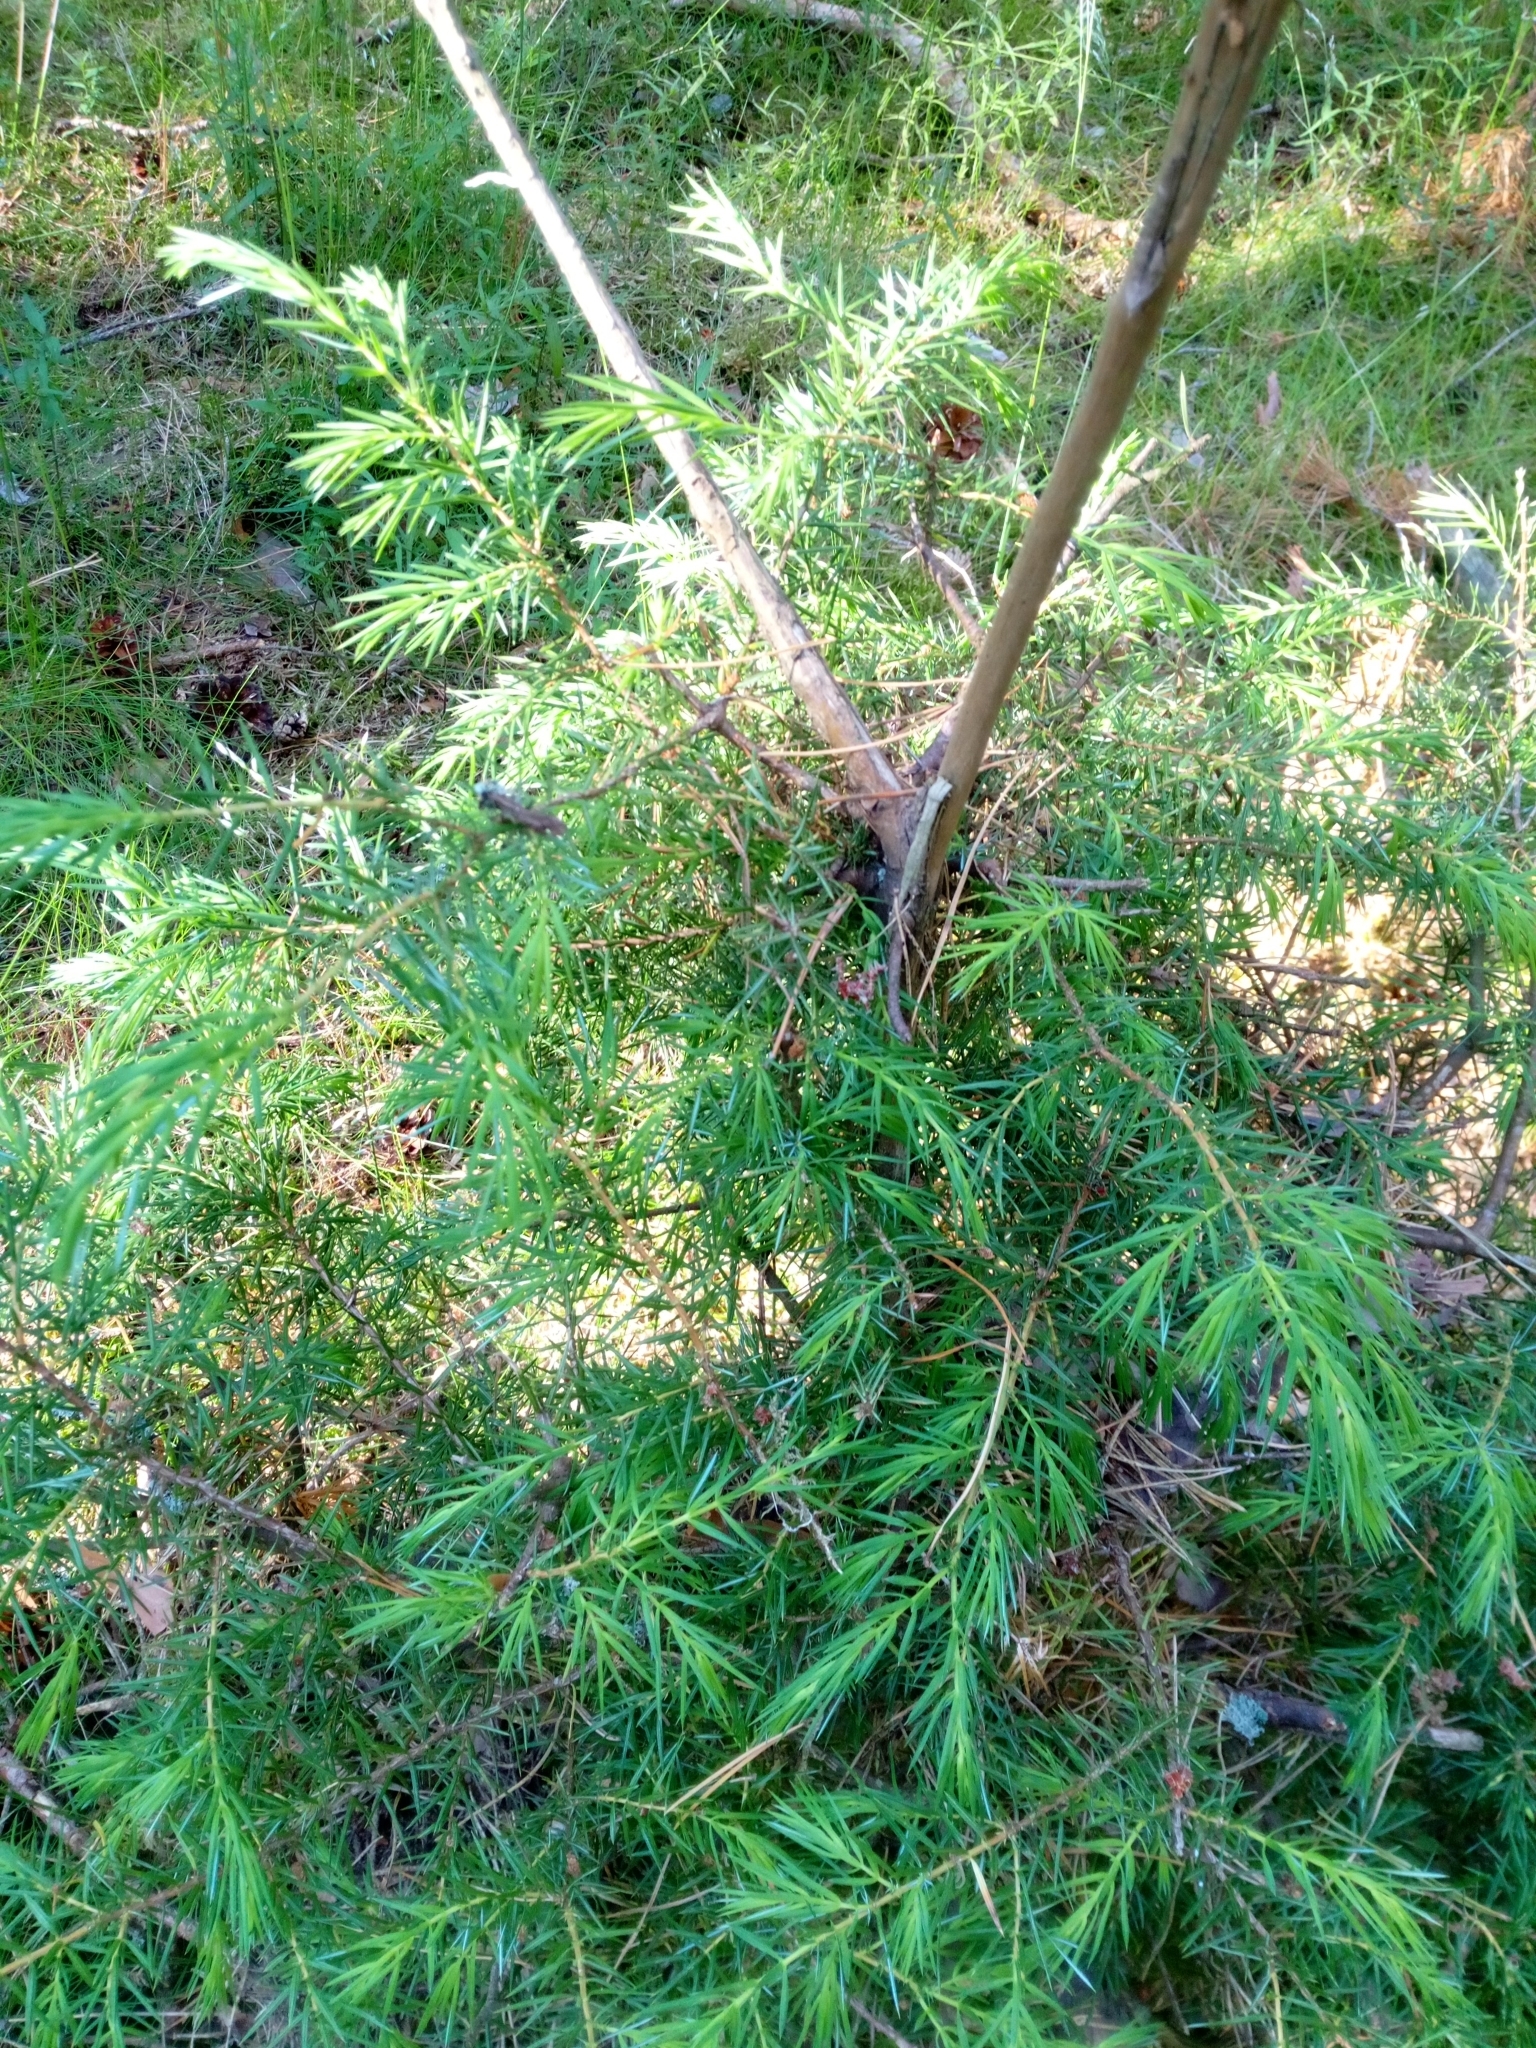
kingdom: Plantae
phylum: Tracheophyta
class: Pinopsida
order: Pinales
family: Cupressaceae
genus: Juniperus
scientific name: Juniperus communis
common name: Common juniper
